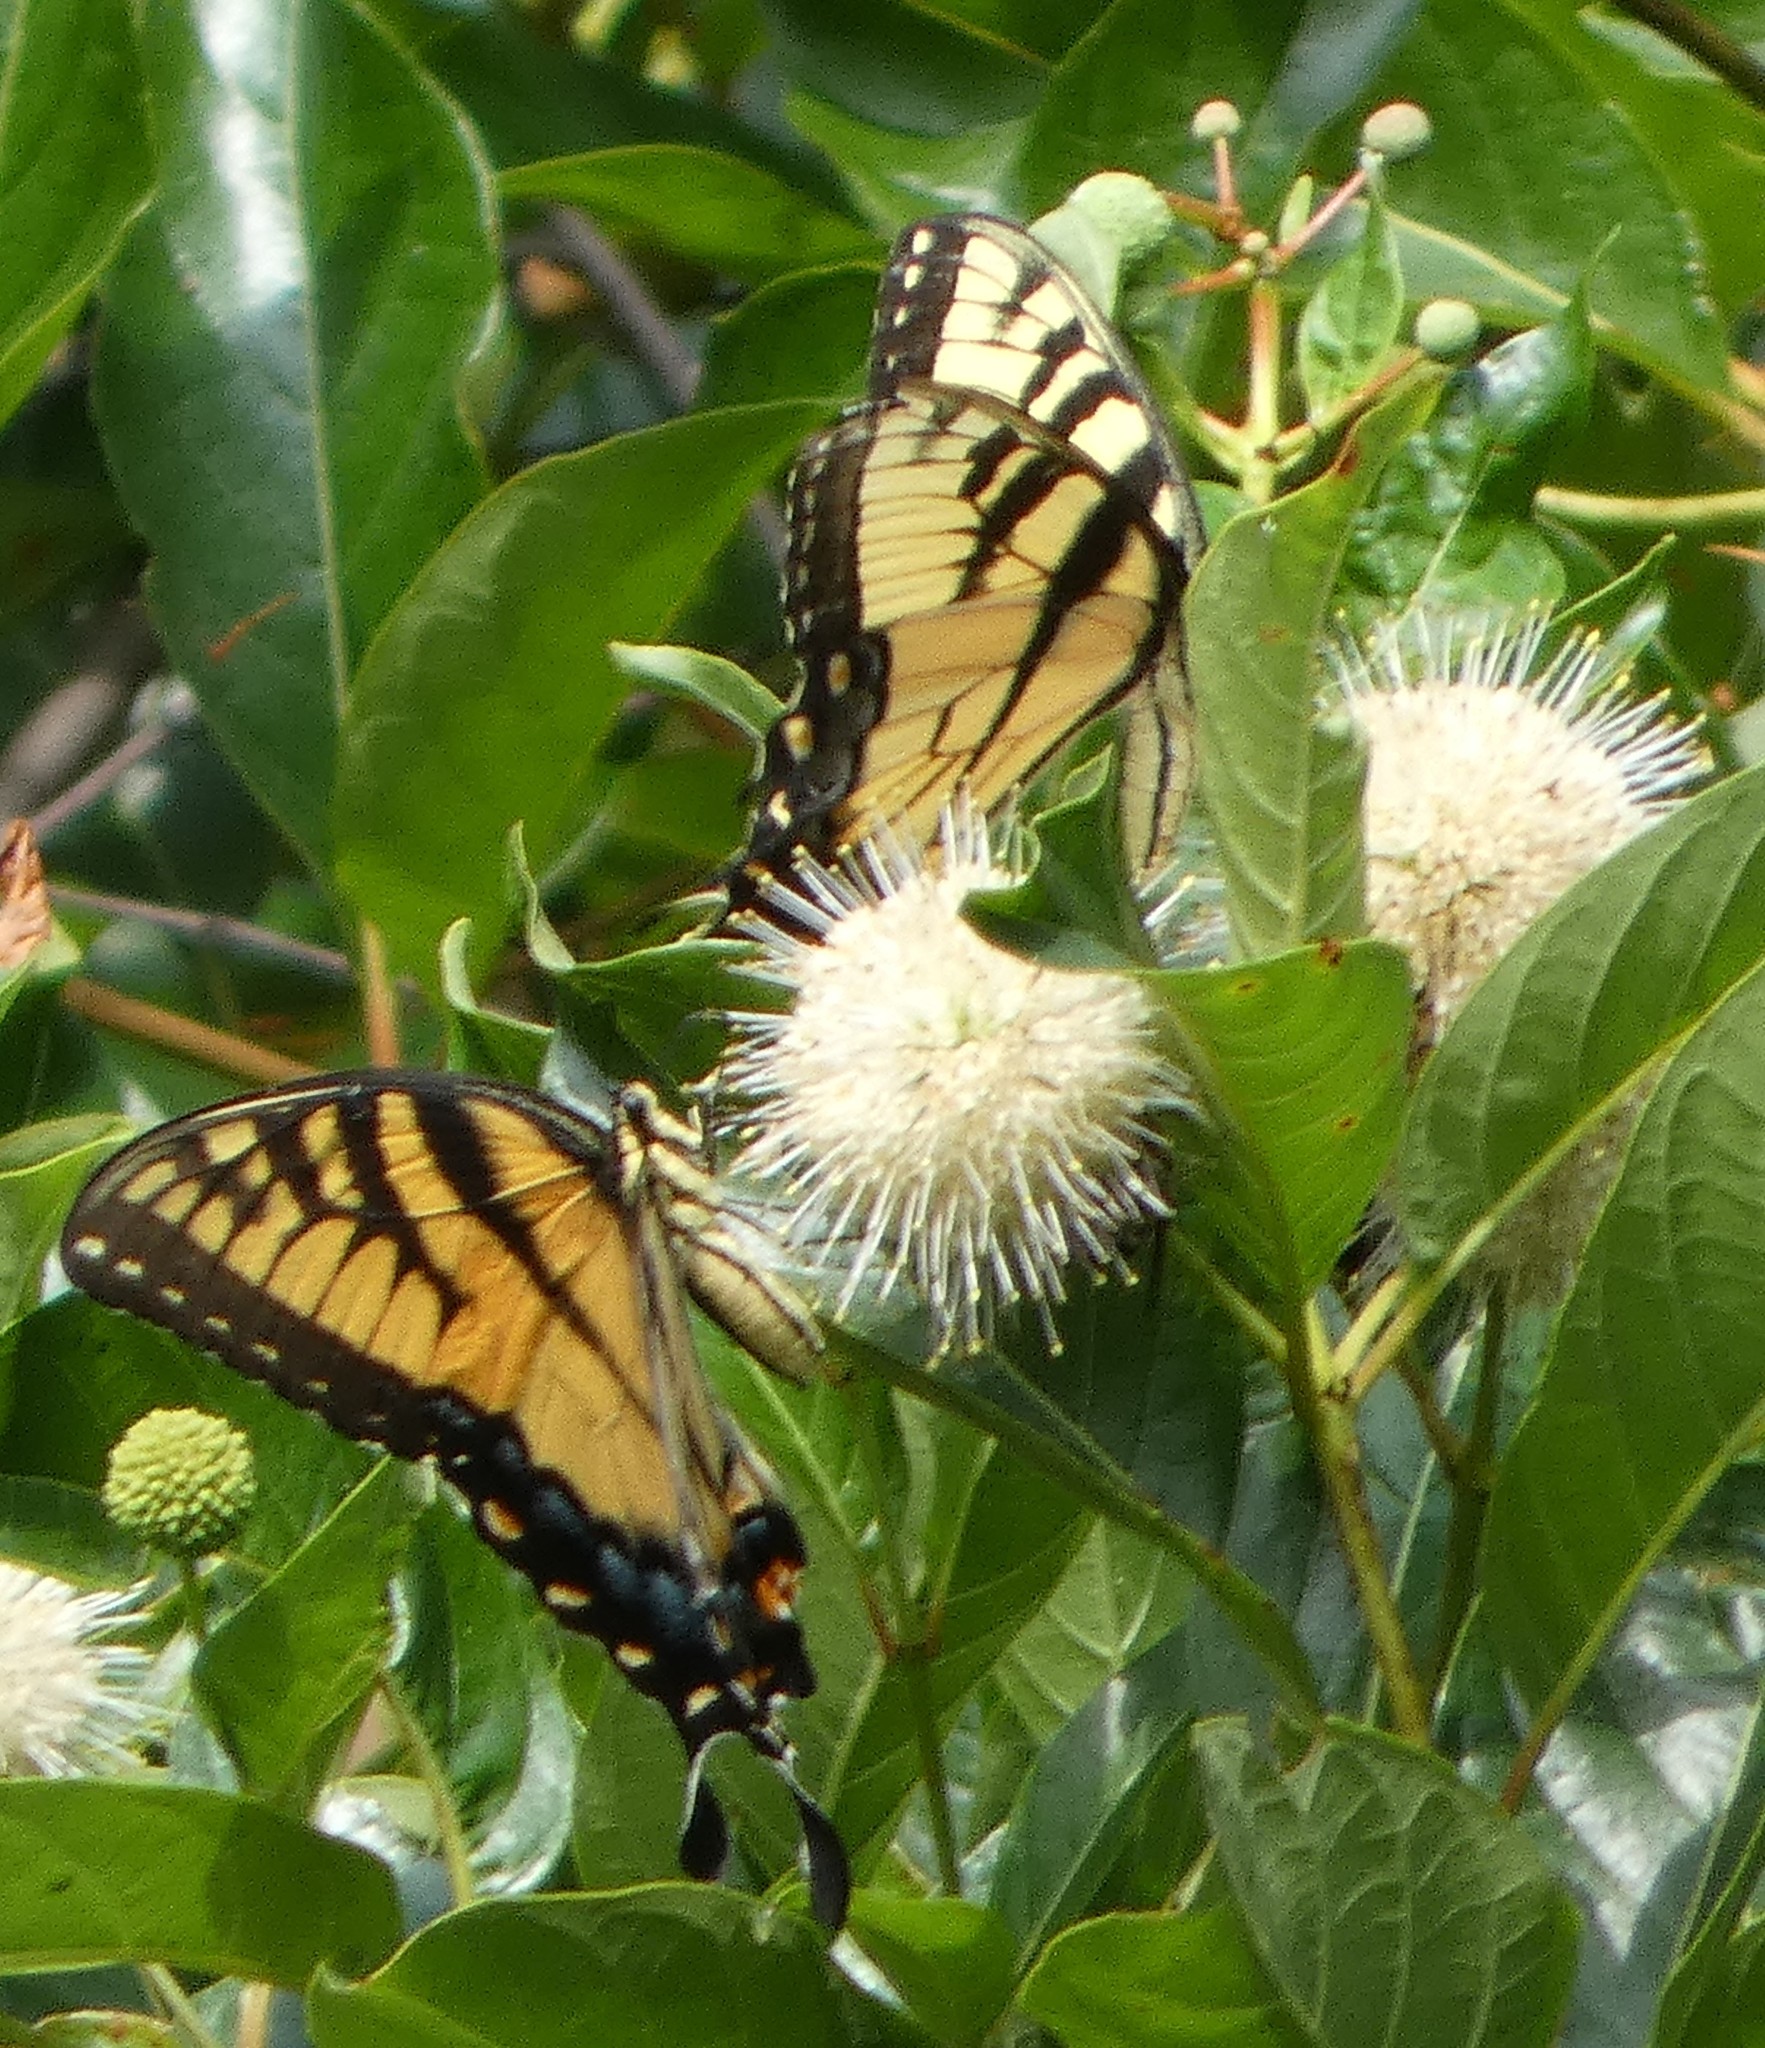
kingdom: Animalia
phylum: Arthropoda
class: Insecta
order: Lepidoptera
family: Papilionidae
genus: Papilio
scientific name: Papilio glaucus
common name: Tiger swallowtail
